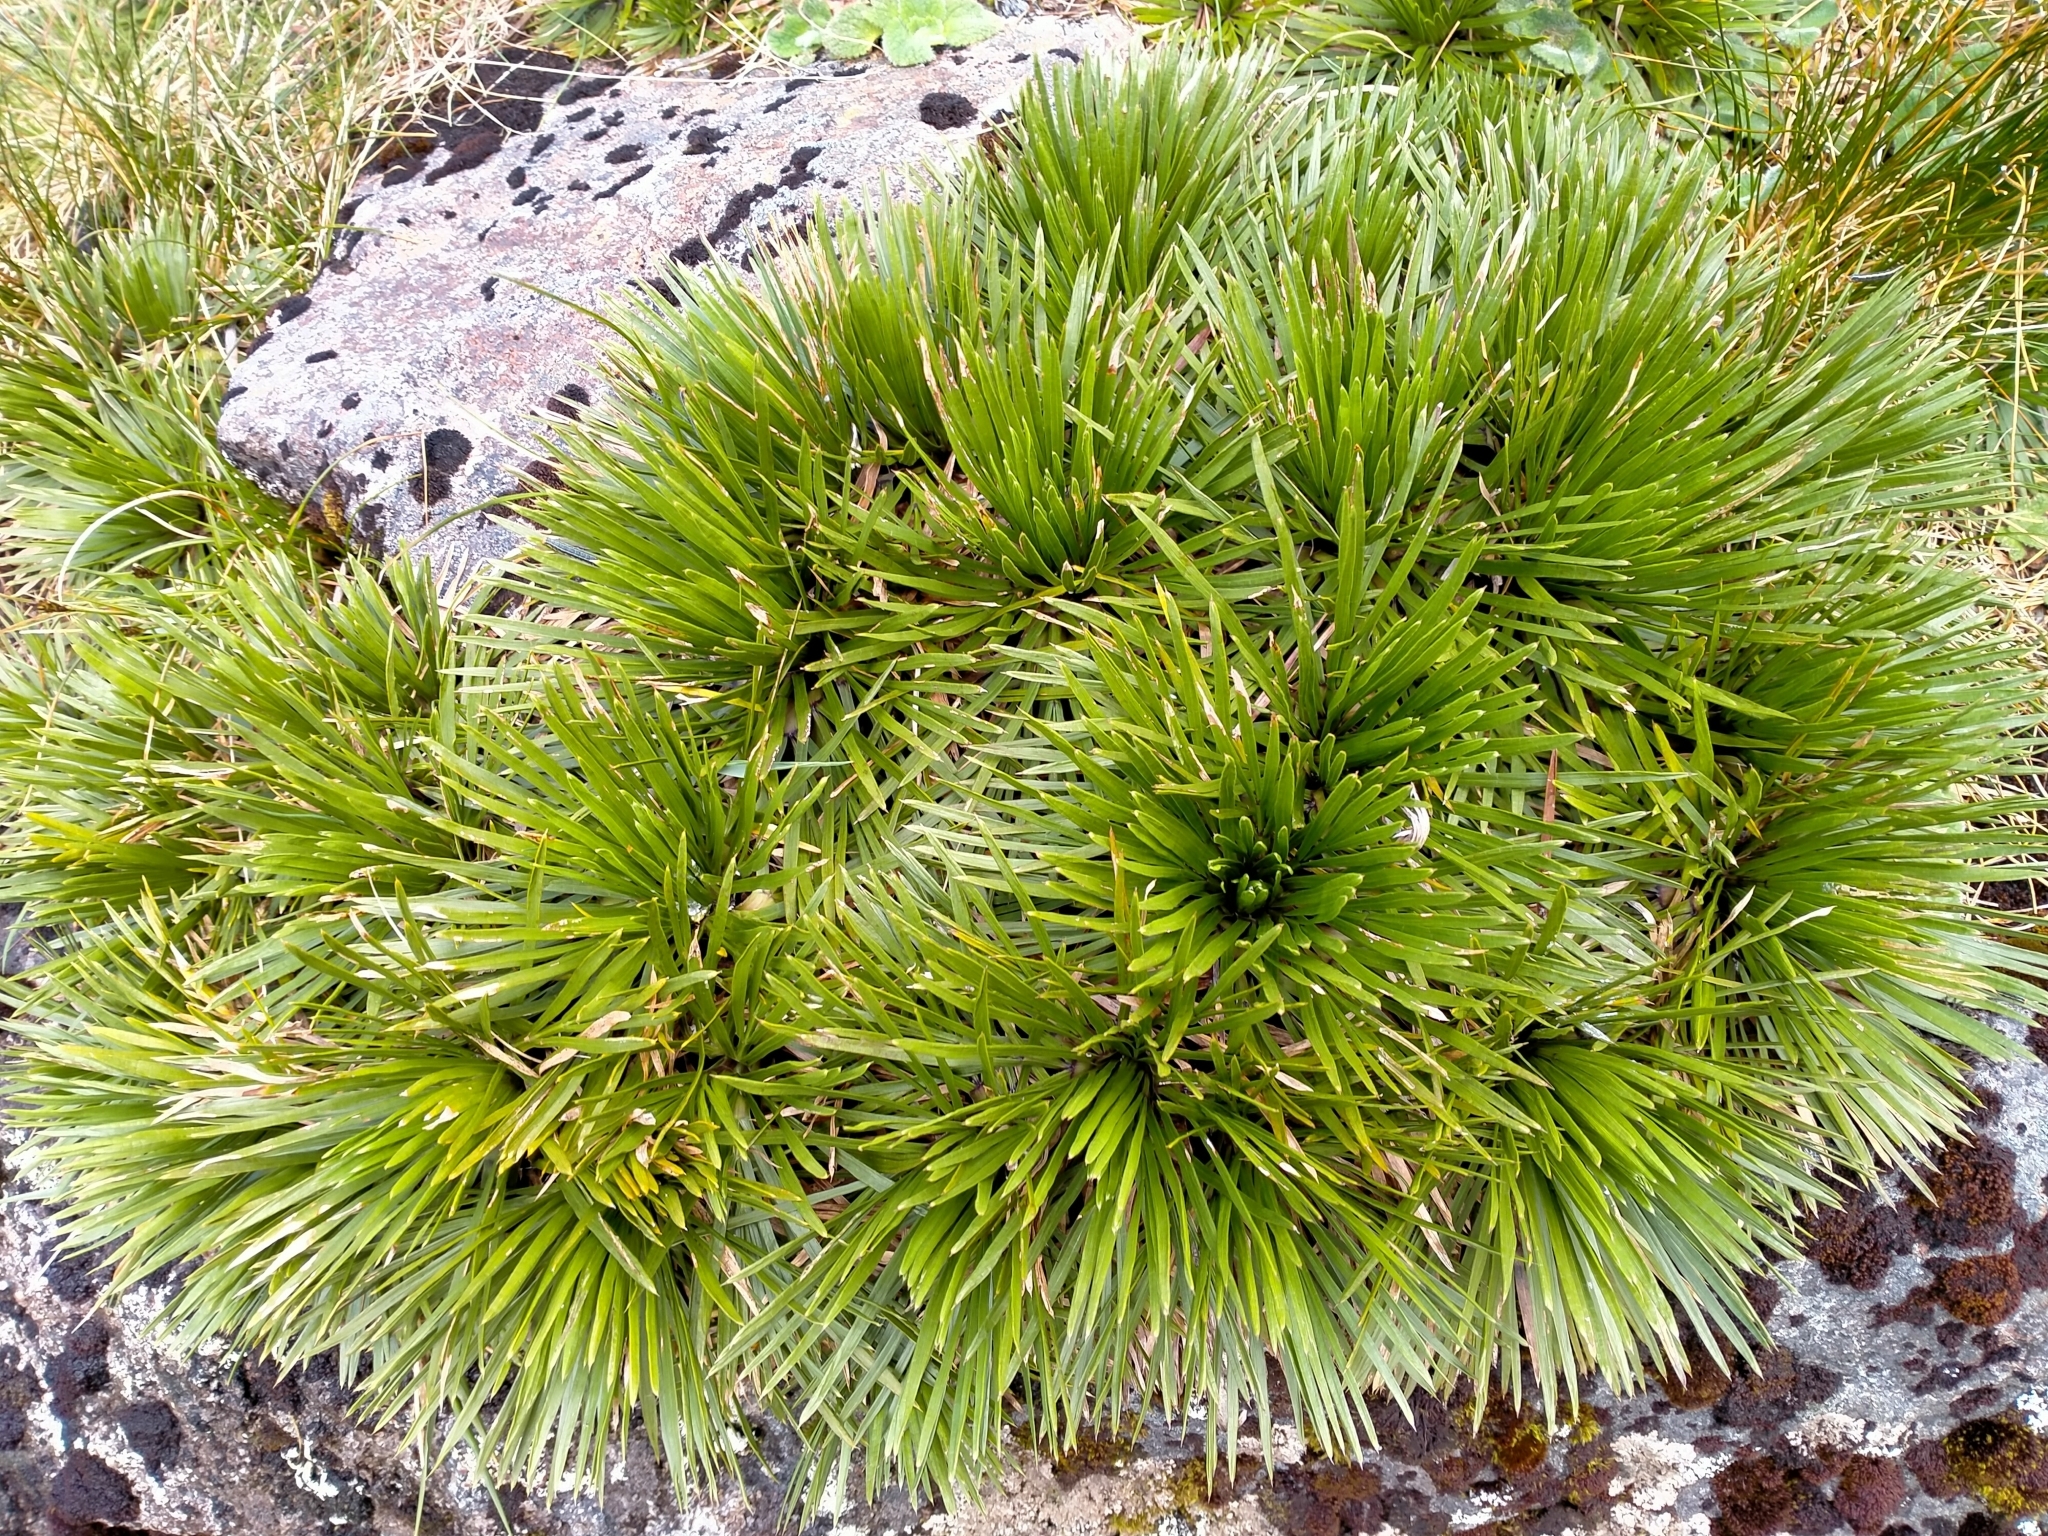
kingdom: Plantae
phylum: Tracheophyta
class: Magnoliopsida
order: Apiales
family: Apiaceae
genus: Aciphylla
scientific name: Aciphylla congesta
